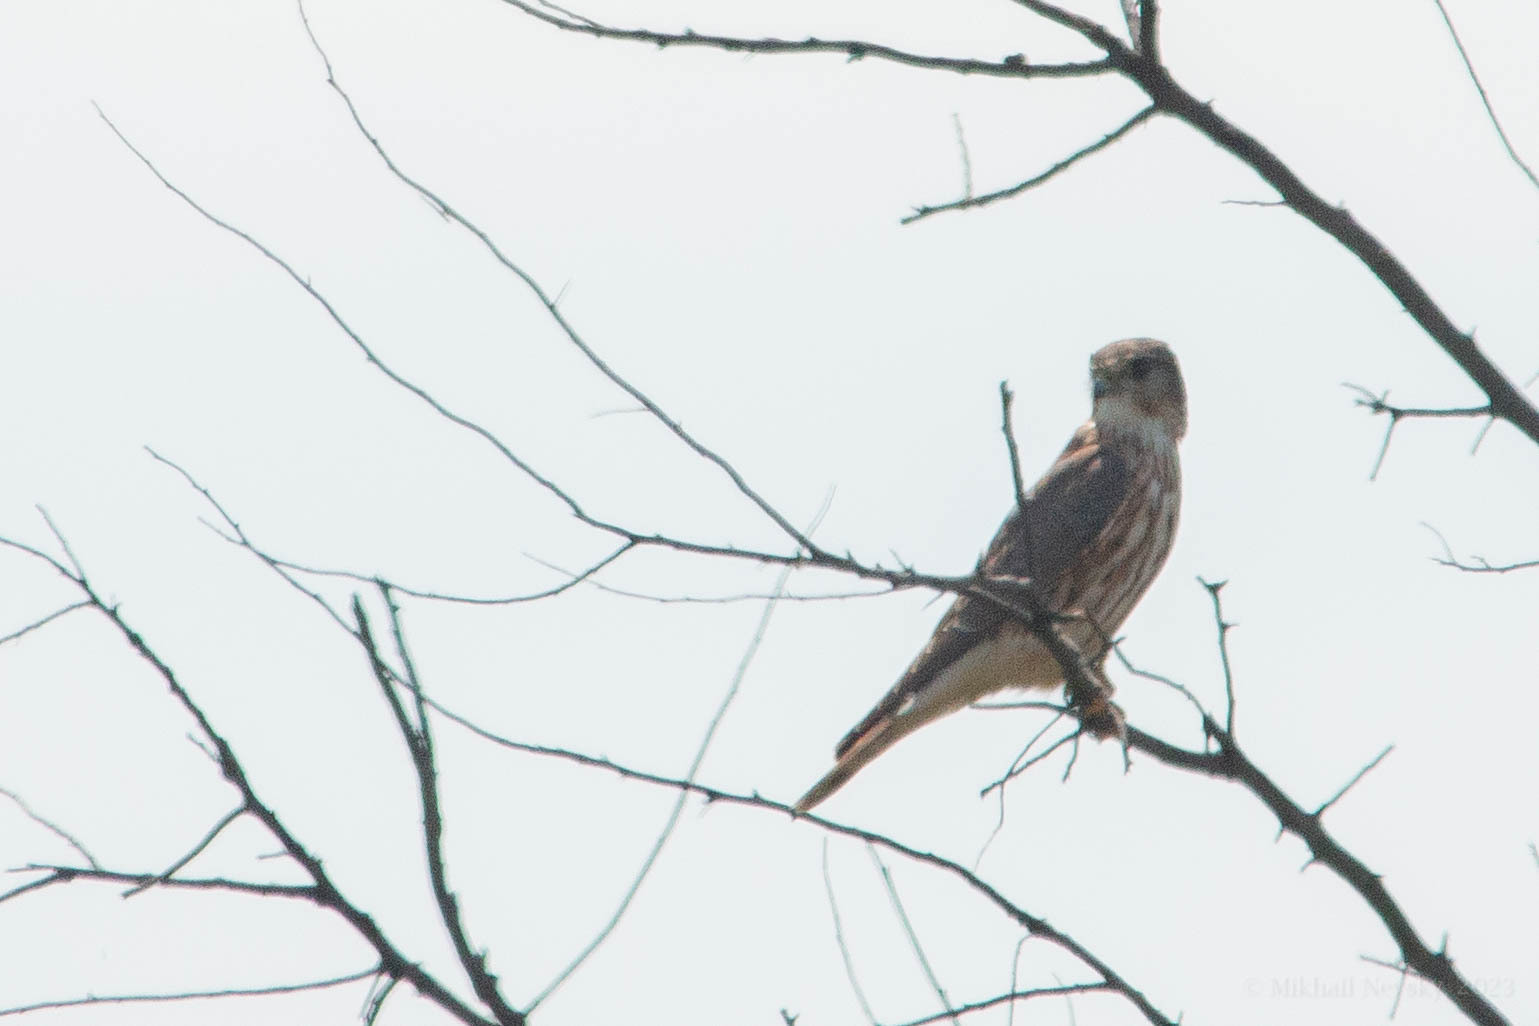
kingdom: Animalia
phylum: Chordata
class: Aves
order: Falconiformes
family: Falconidae
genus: Falco
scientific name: Falco columbarius
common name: Merlin
